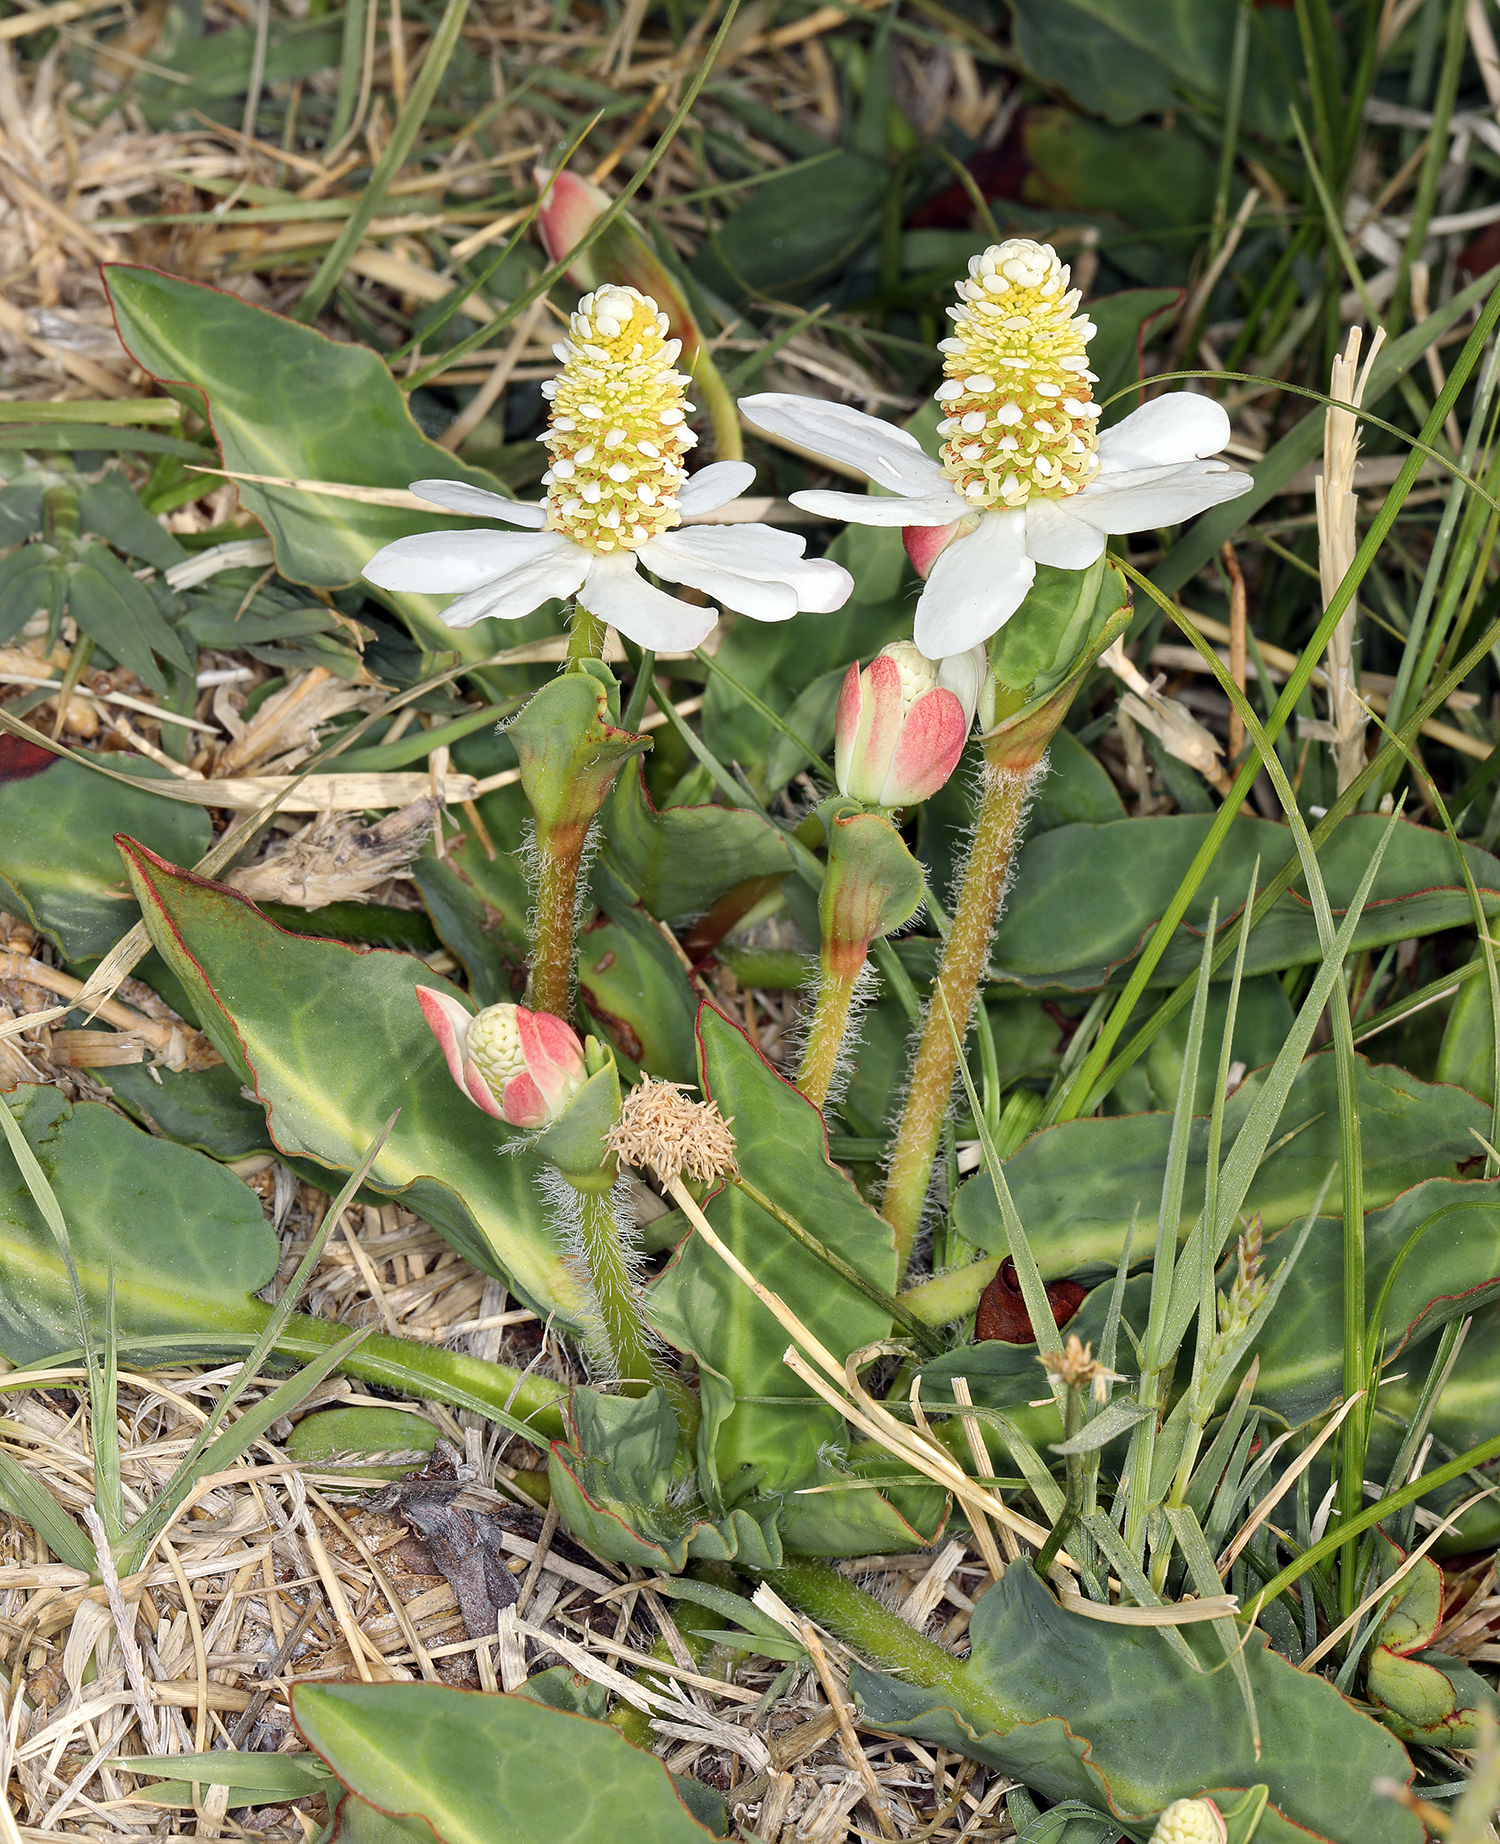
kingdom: Plantae
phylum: Tracheophyta
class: Magnoliopsida
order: Piperales
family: Saururaceae
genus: Anemopsis
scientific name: Anemopsis californica
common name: Apache-beads
